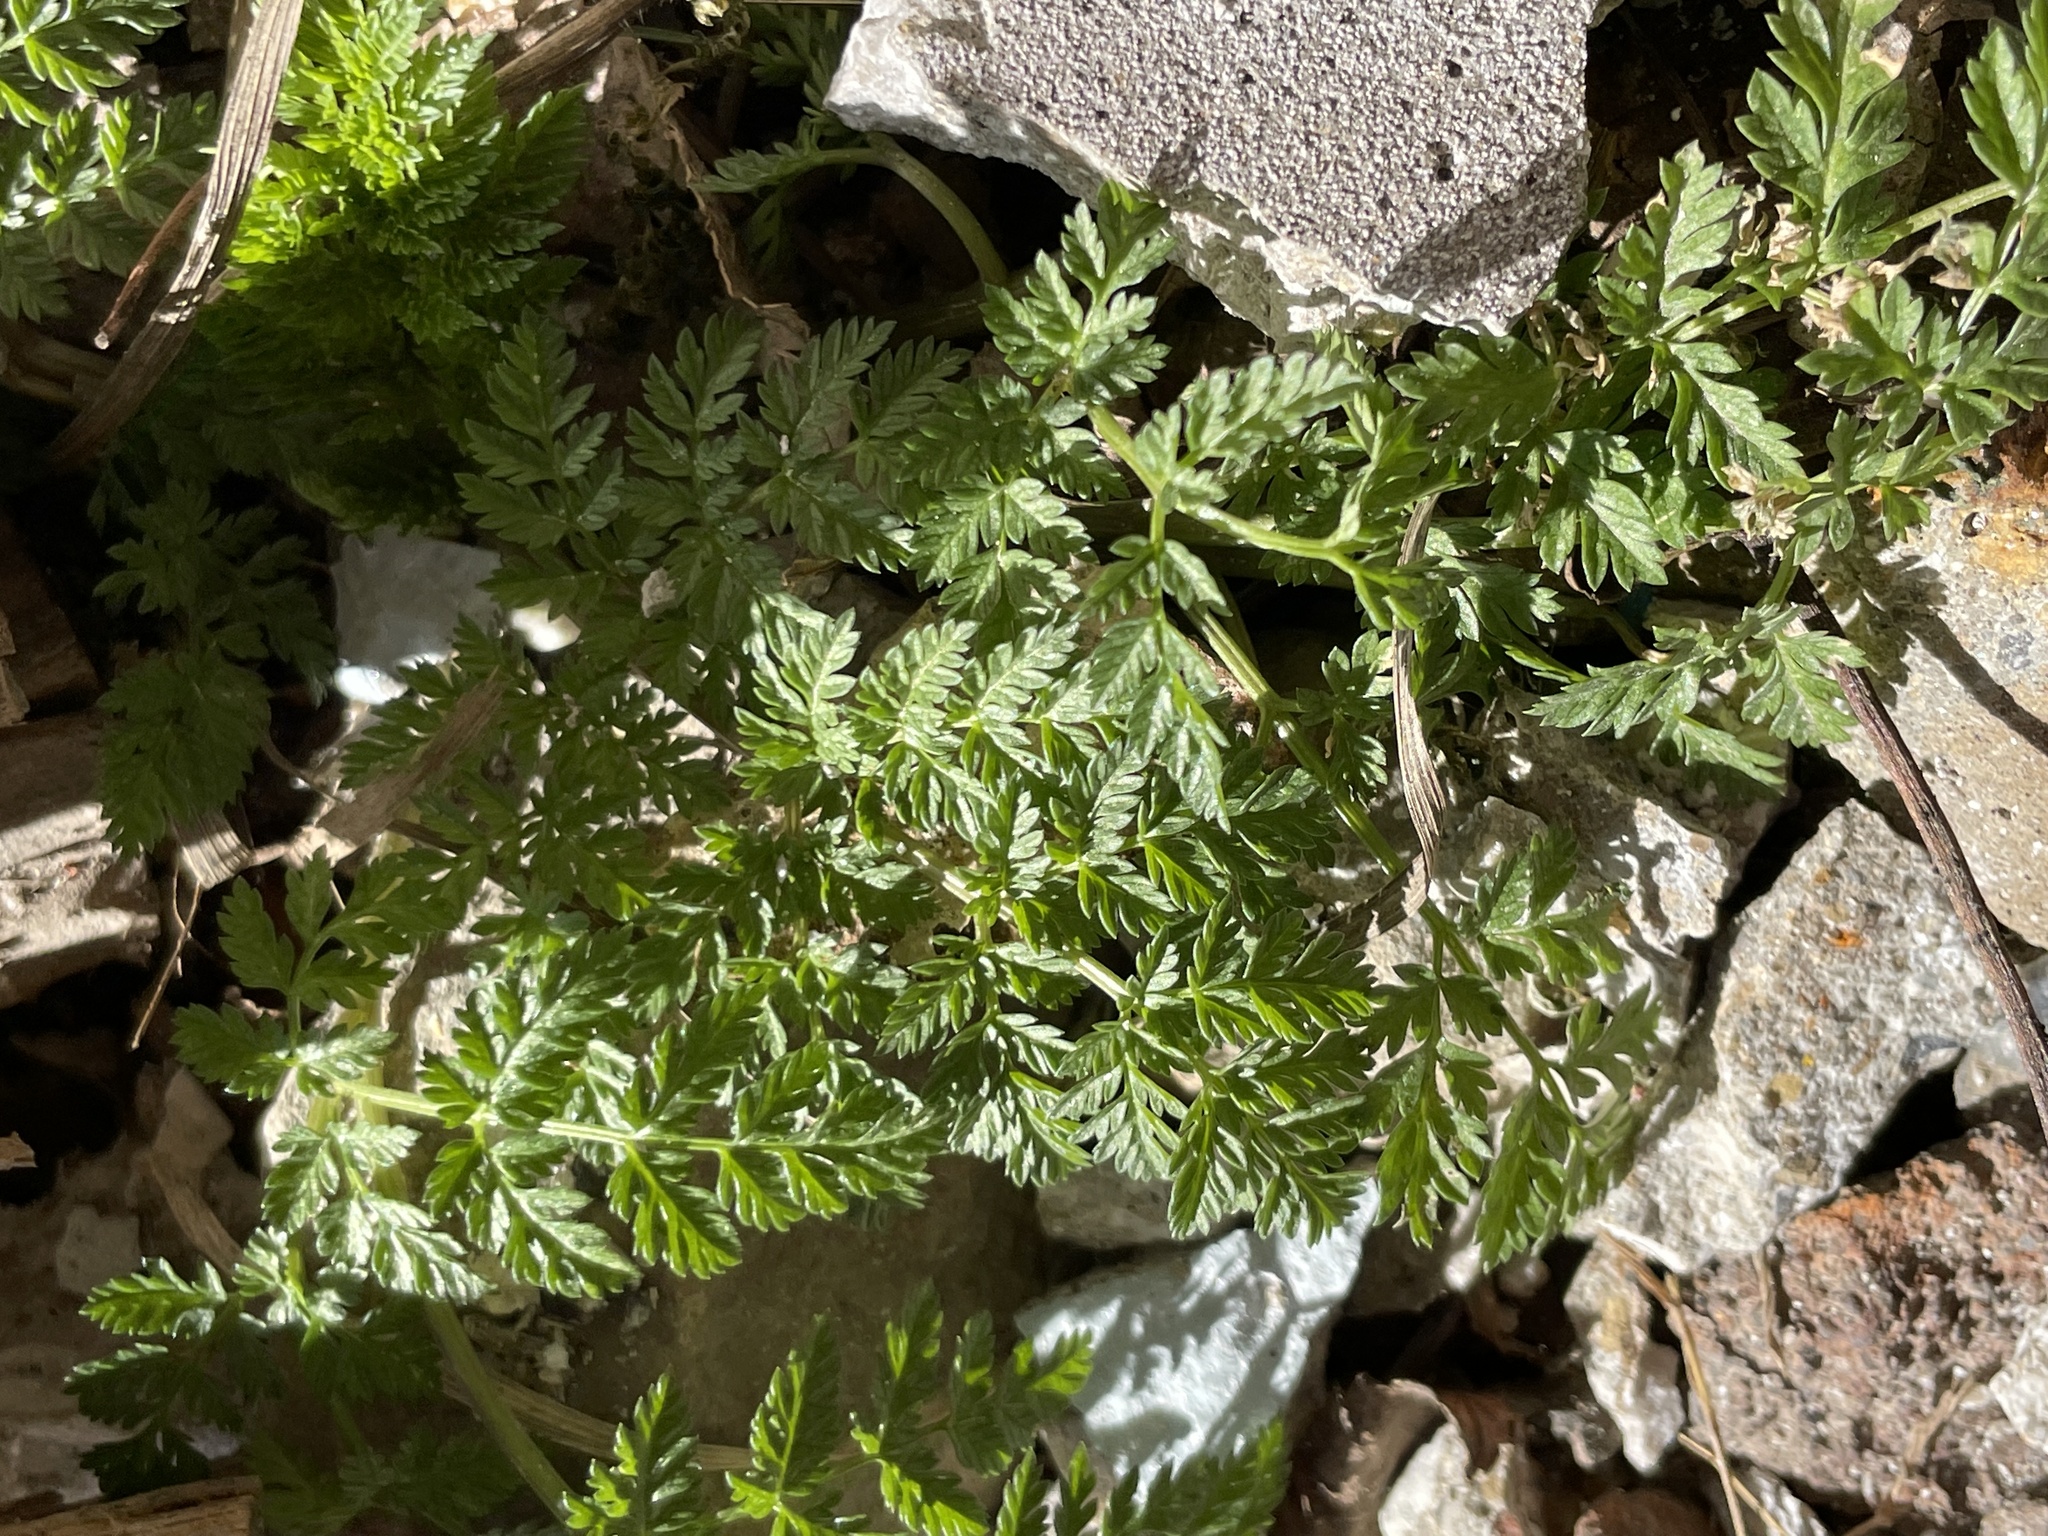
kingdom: Plantae
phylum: Tracheophyta
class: Magnoliopsida
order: Apiales
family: Apiaceae
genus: Conium
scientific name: Conium maculatum
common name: Hemlock
